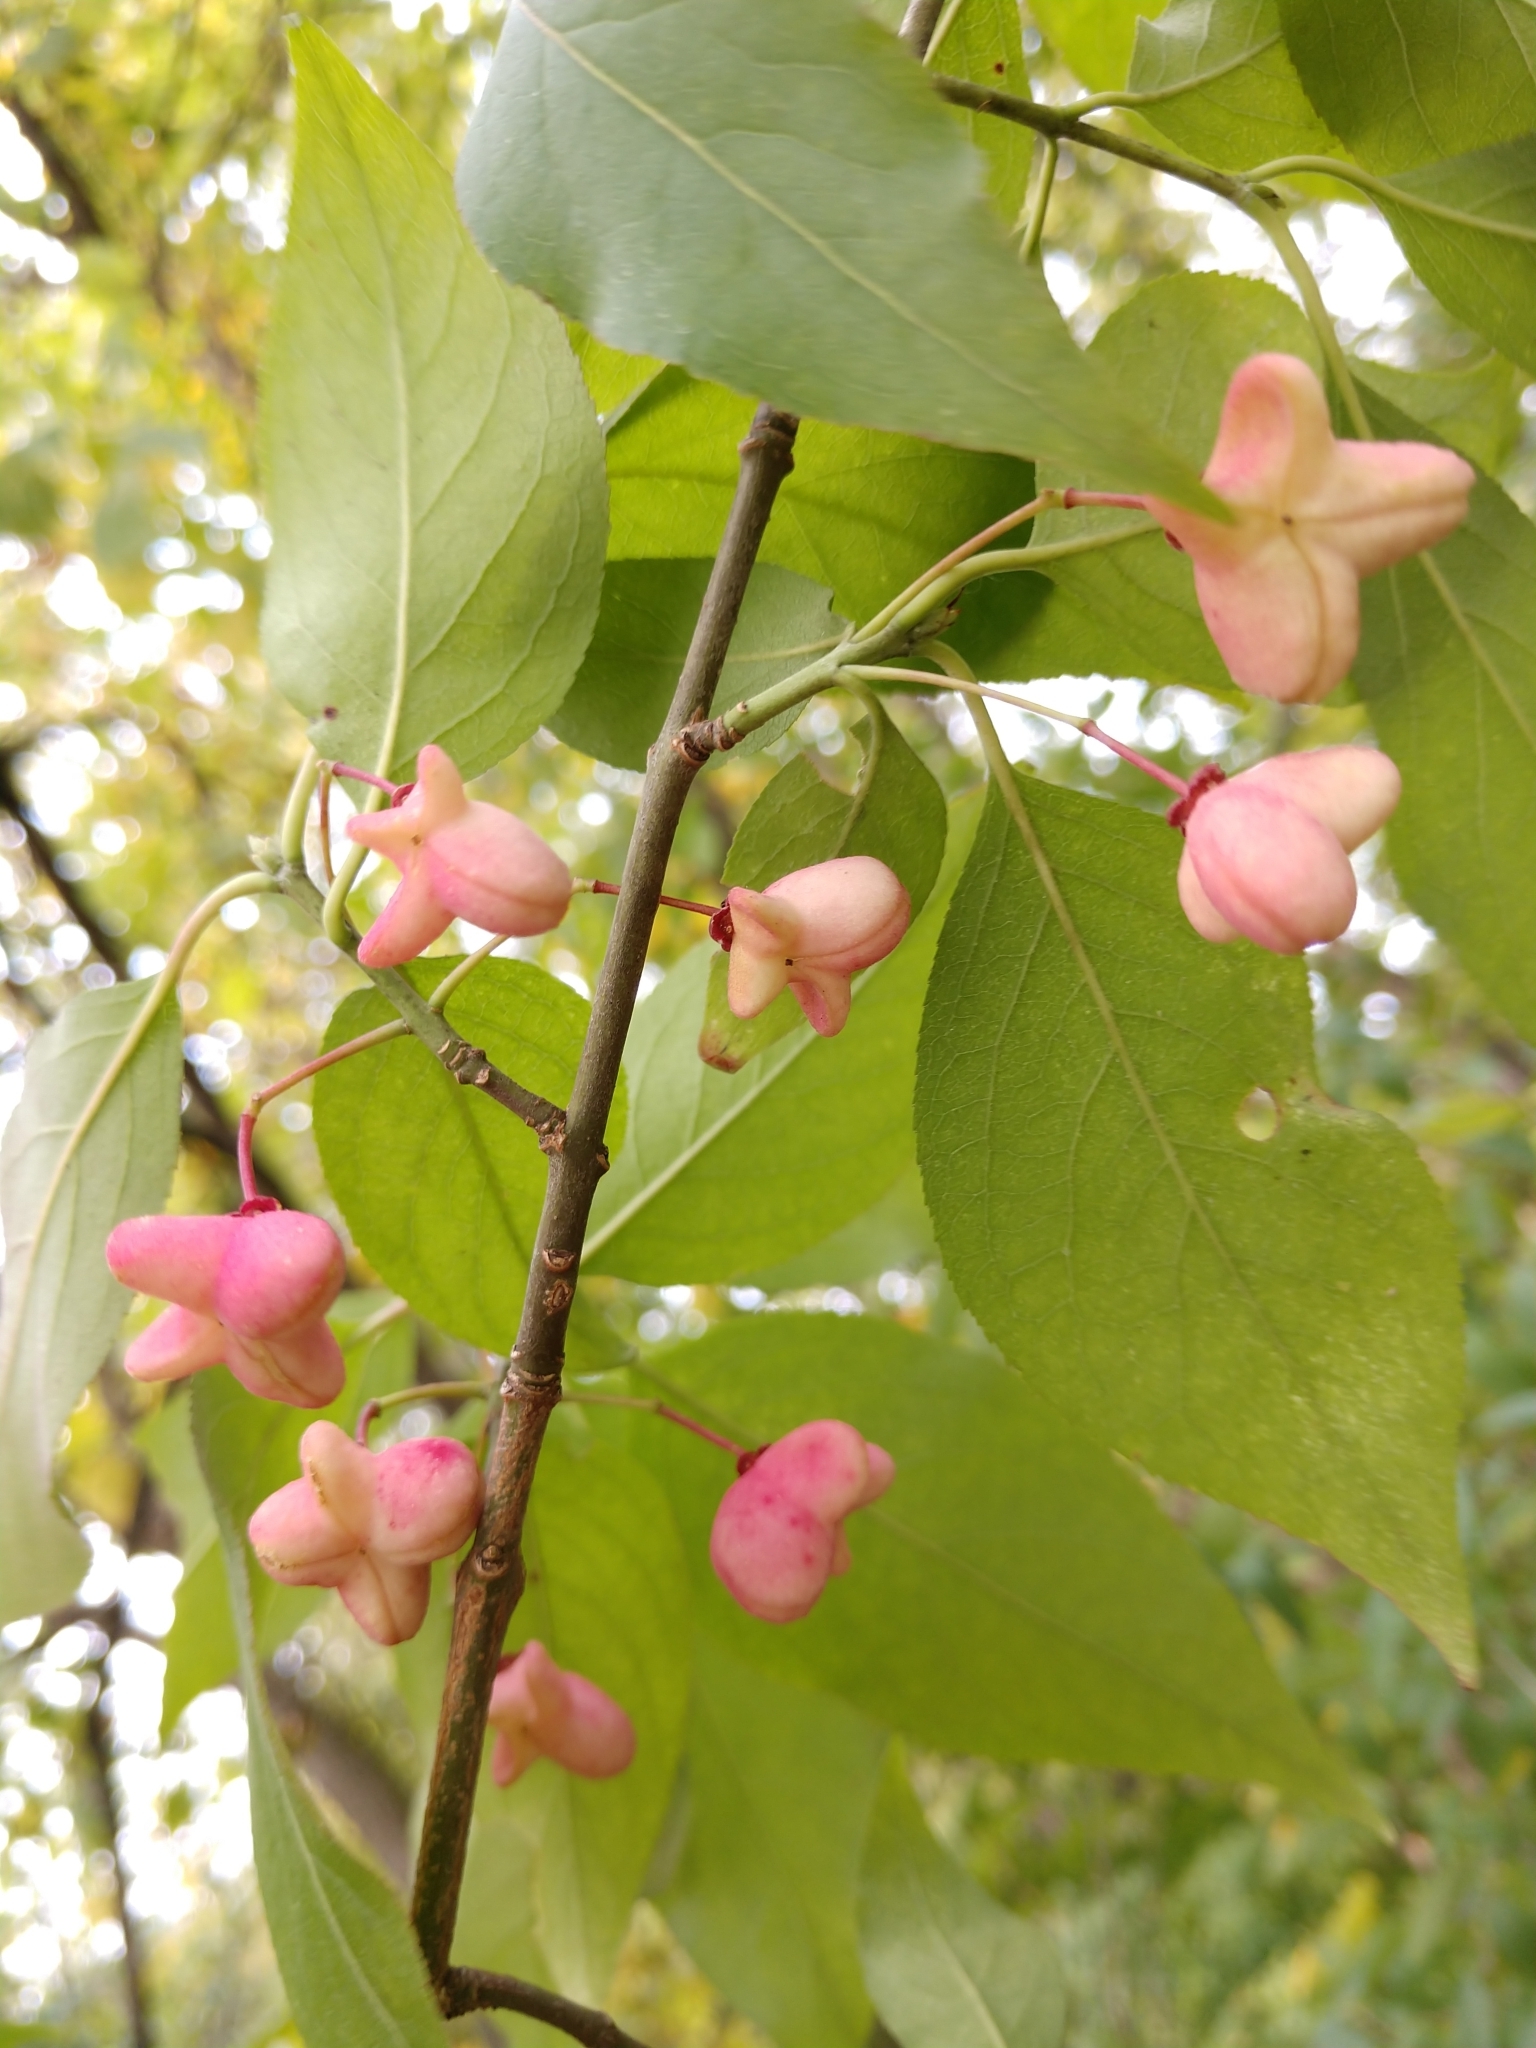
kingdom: Plantae
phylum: Tracheophyta
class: Magnoliopsida
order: Celastrales
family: Celastraceae
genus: Euonymus
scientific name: Euonymus atropurpureus
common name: Eastern wahoo
